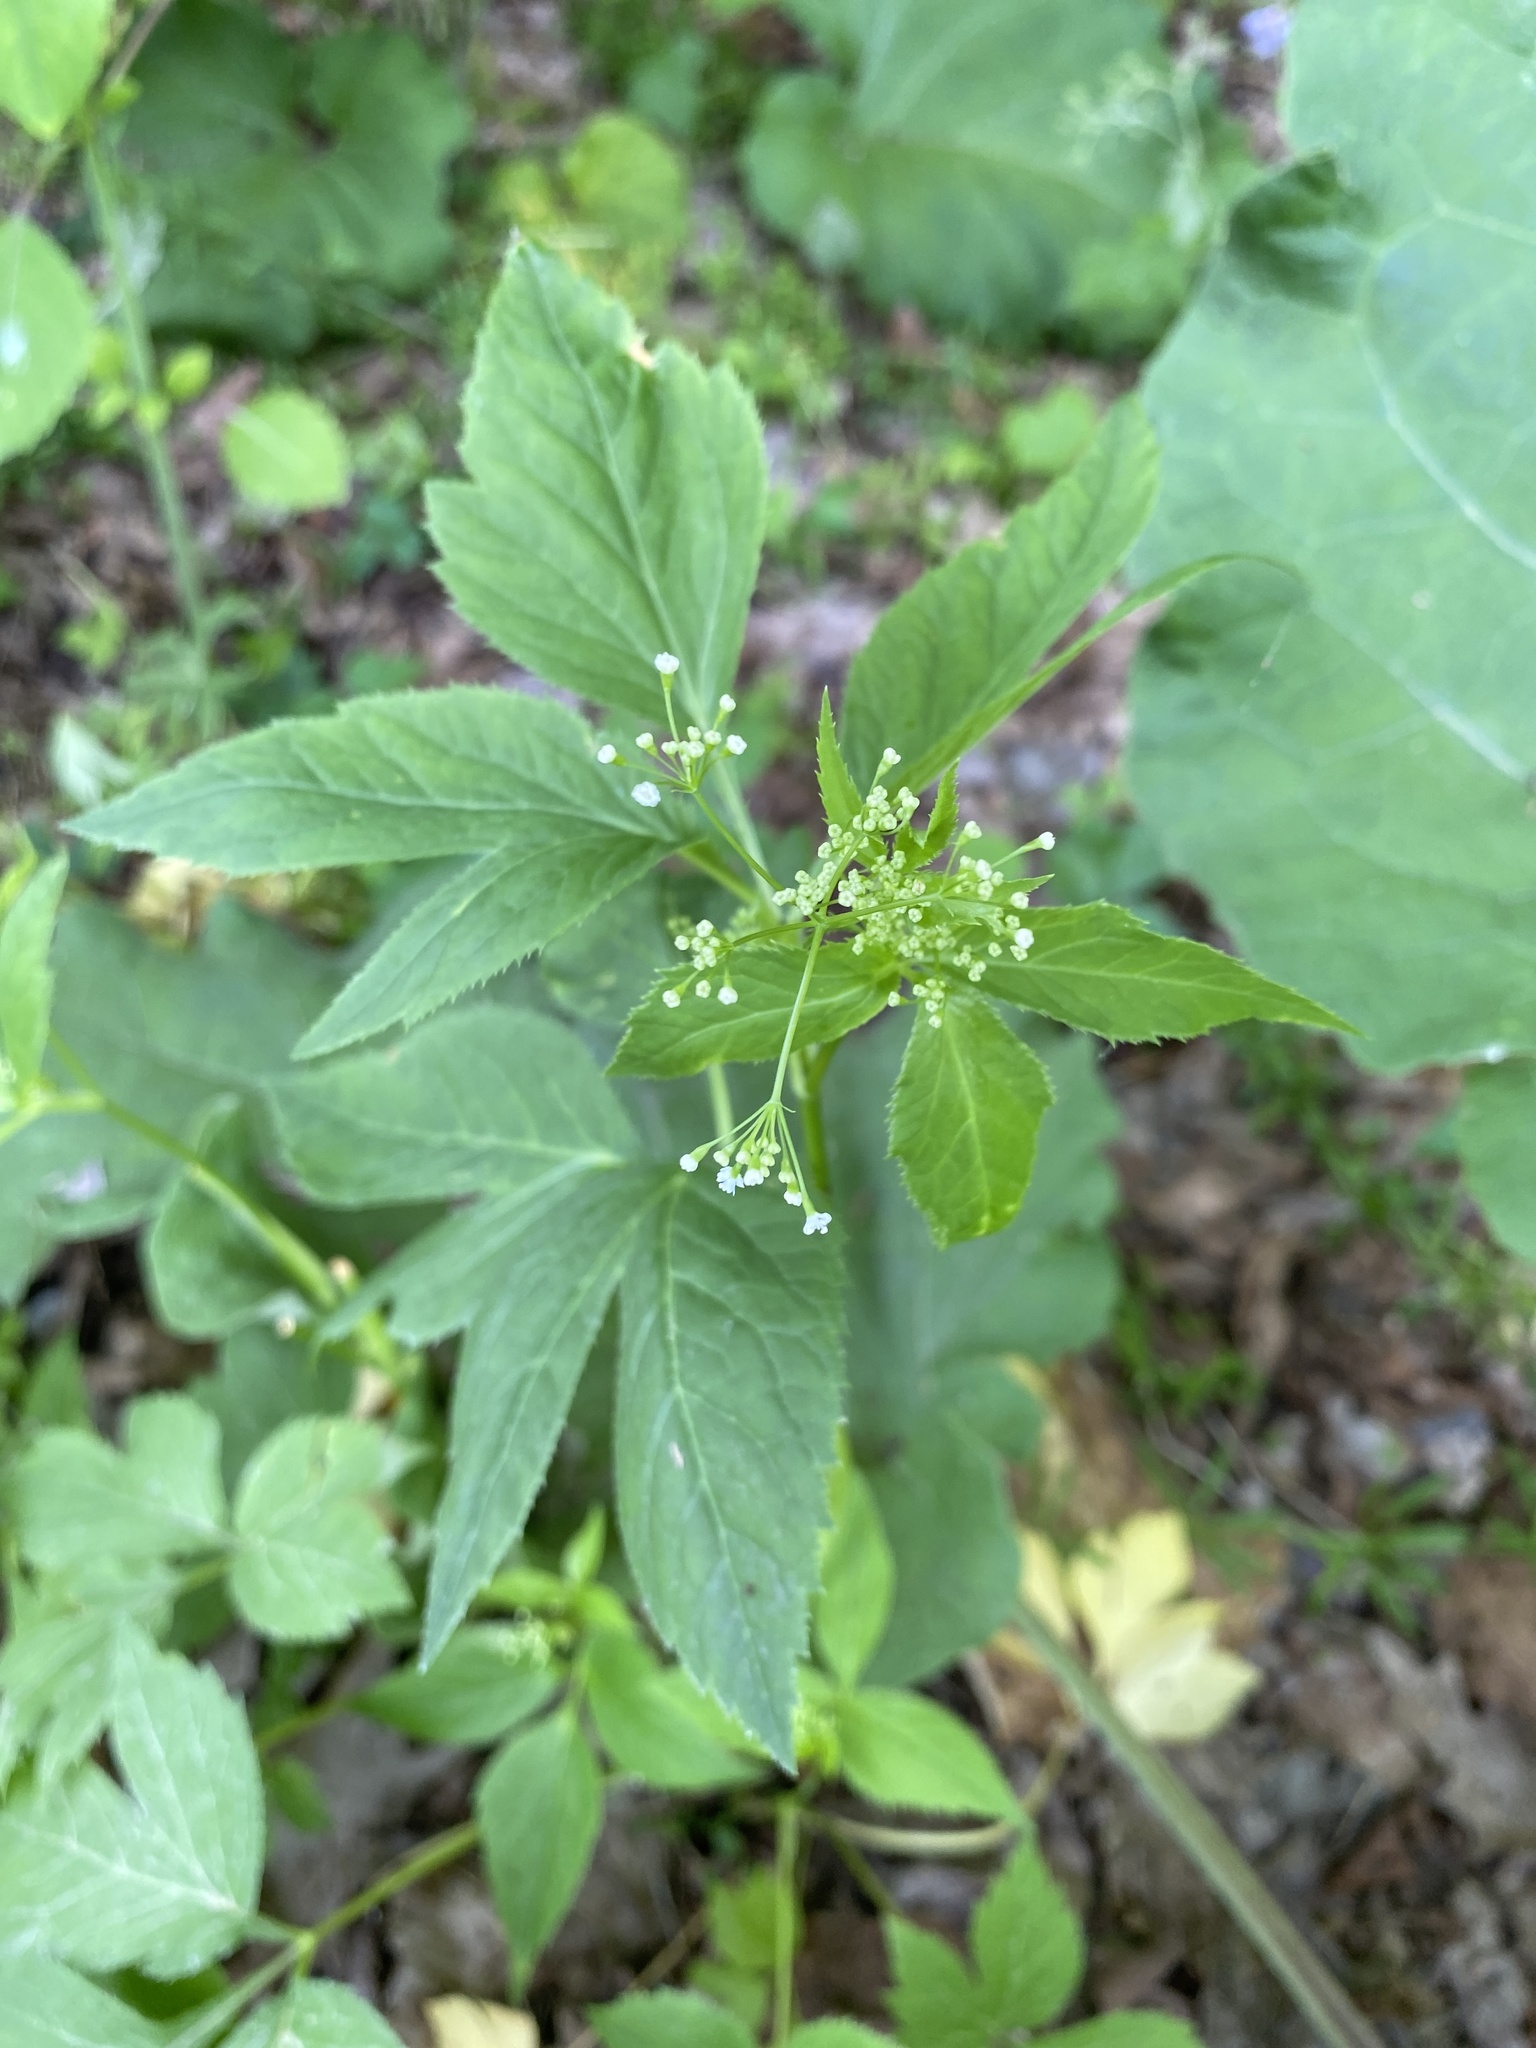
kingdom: Plantae
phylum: Tracheophyta
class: Magnoliopsida
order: Apiales
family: Apiaceae
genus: Cryptotaenia
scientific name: Cryptotaenia canadensis
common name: Honewort
